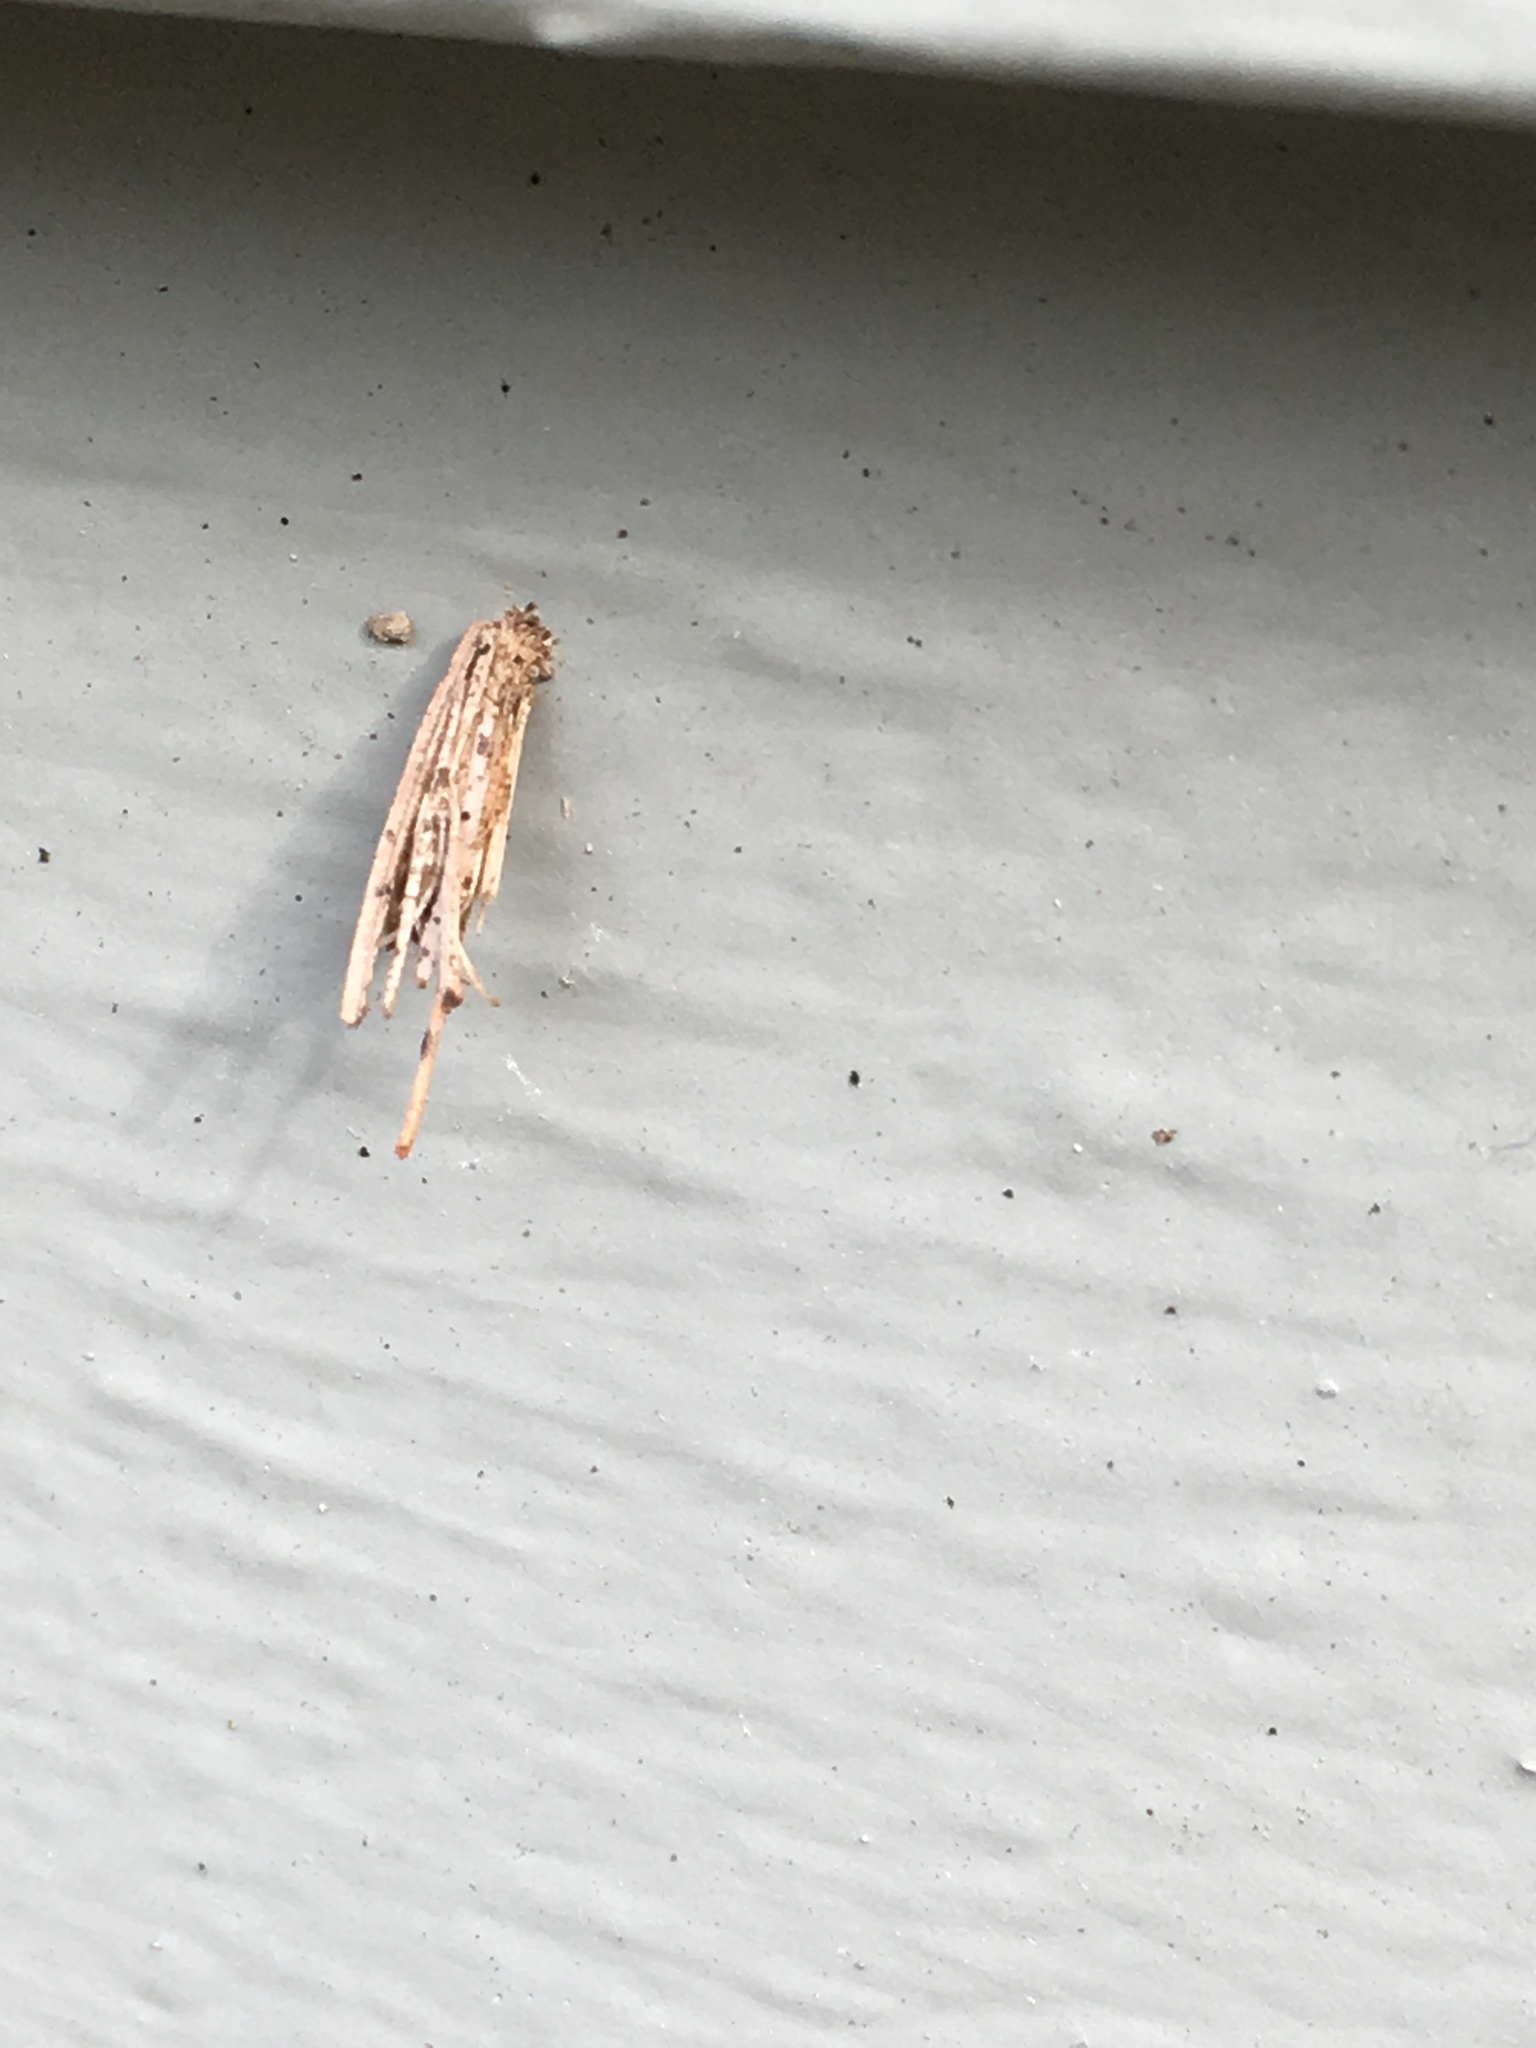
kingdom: Animalia
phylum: Arthropoda
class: Insecta
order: Lepidoptera
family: Psychidae
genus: Psyche
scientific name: Psyche casta
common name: Common sweep
